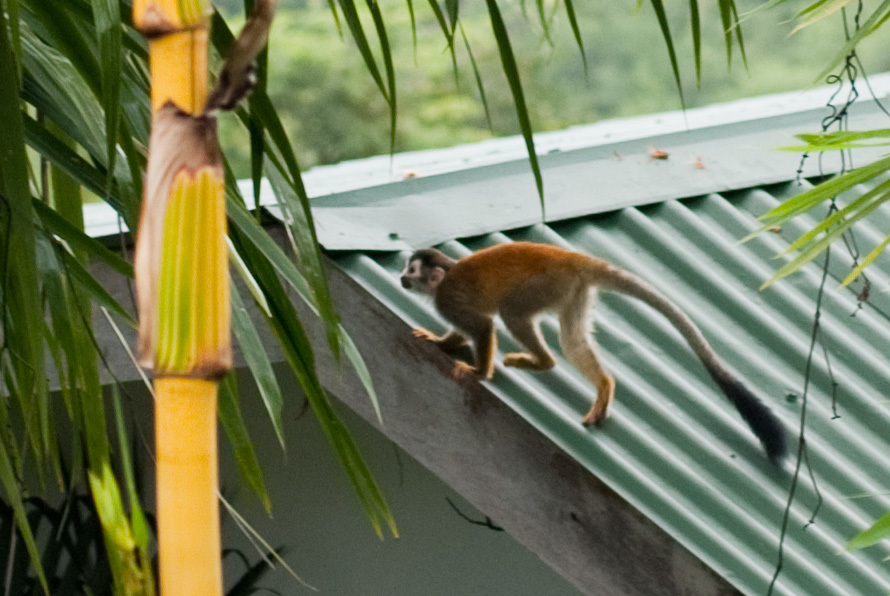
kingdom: Animalia
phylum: Chordata
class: Mammalia
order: Primates
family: Cebidae
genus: Saimiri
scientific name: Saimiri oerstedii
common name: Central american squirrel monkey
